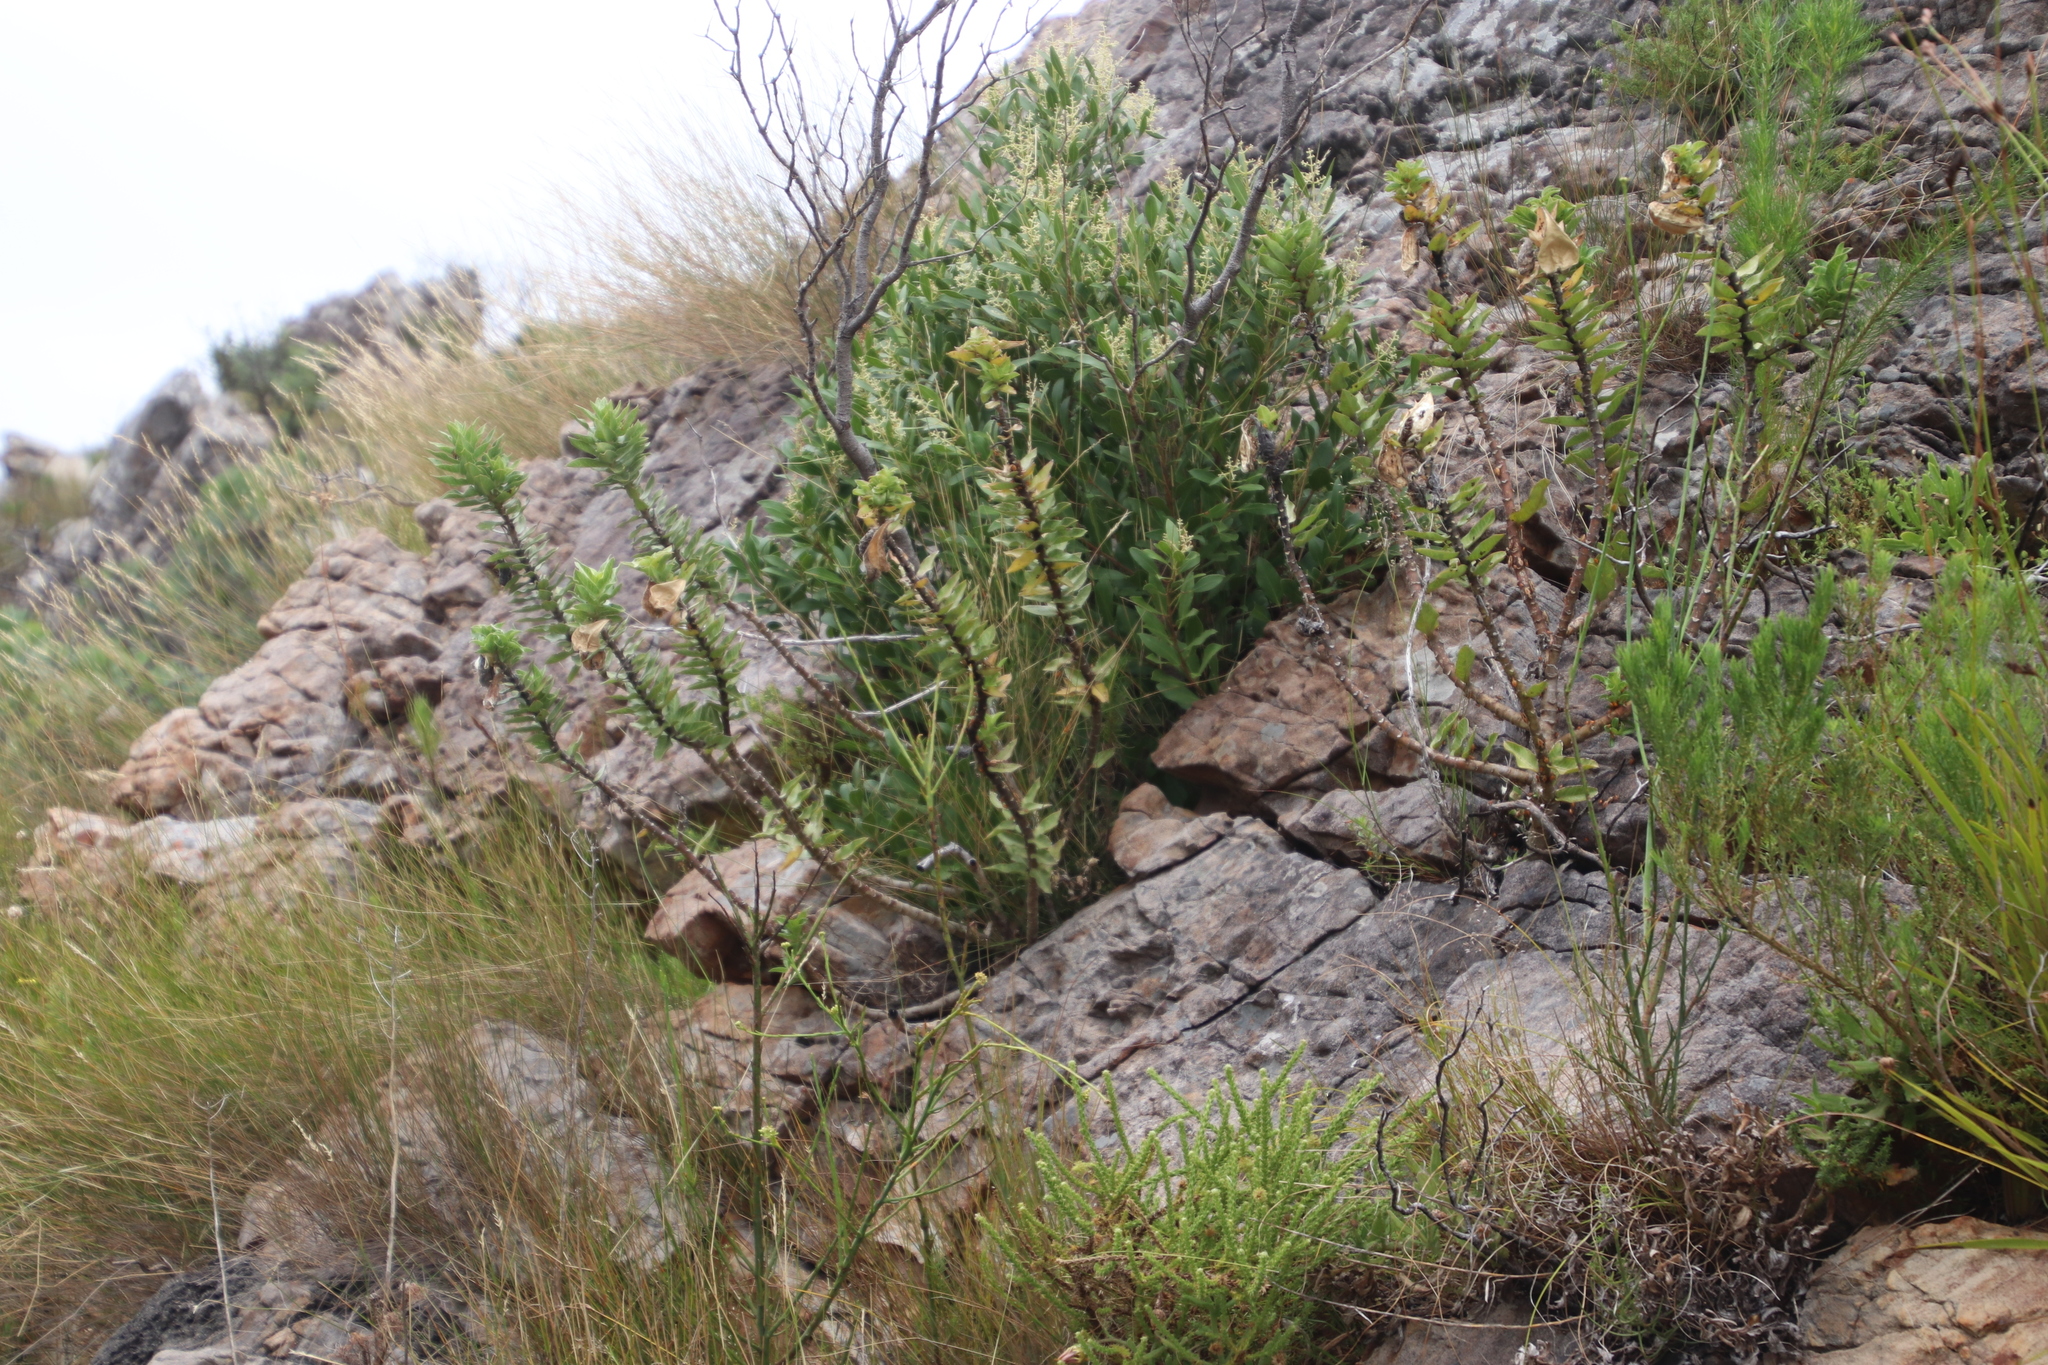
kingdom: Plantae
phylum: Tracheophyta
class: Magnoliopsida
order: Gentianales
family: Apocynaceae
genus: Gomphocarpus
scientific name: Gomphocarpus cancellatus
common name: Wild cotton
